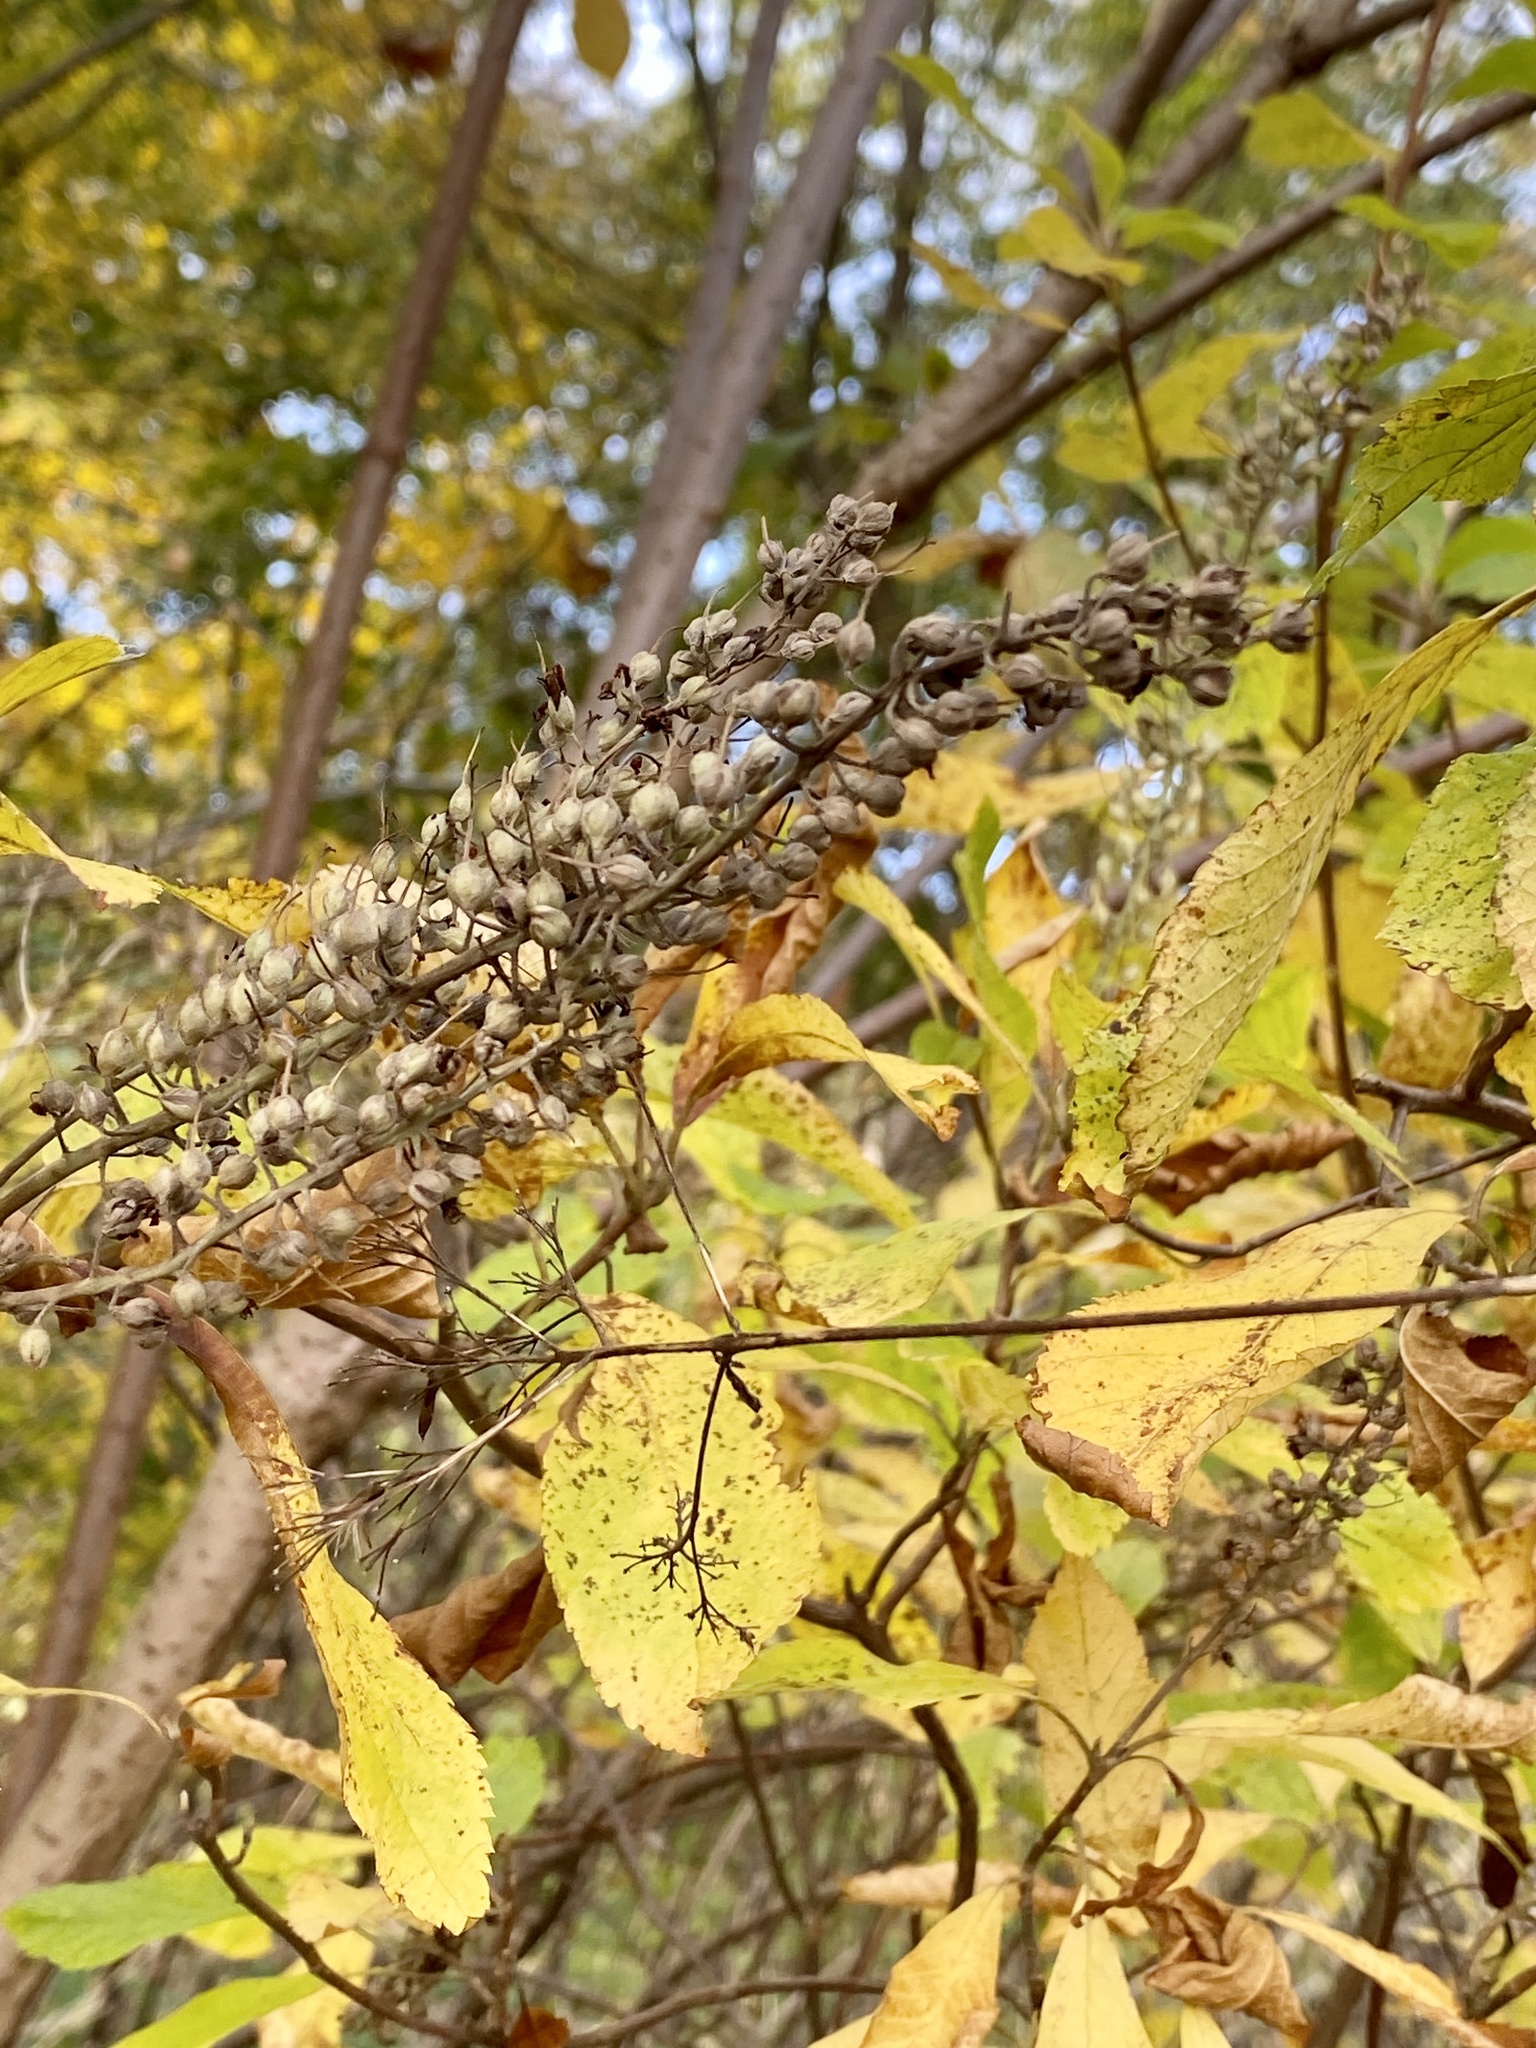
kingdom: Plantae
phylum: Tracheophyta
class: Magnoliopsida
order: Ericales
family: Clethraceae
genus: Clethra
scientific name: Clethra alnifolia
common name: Sweet pepperbush
